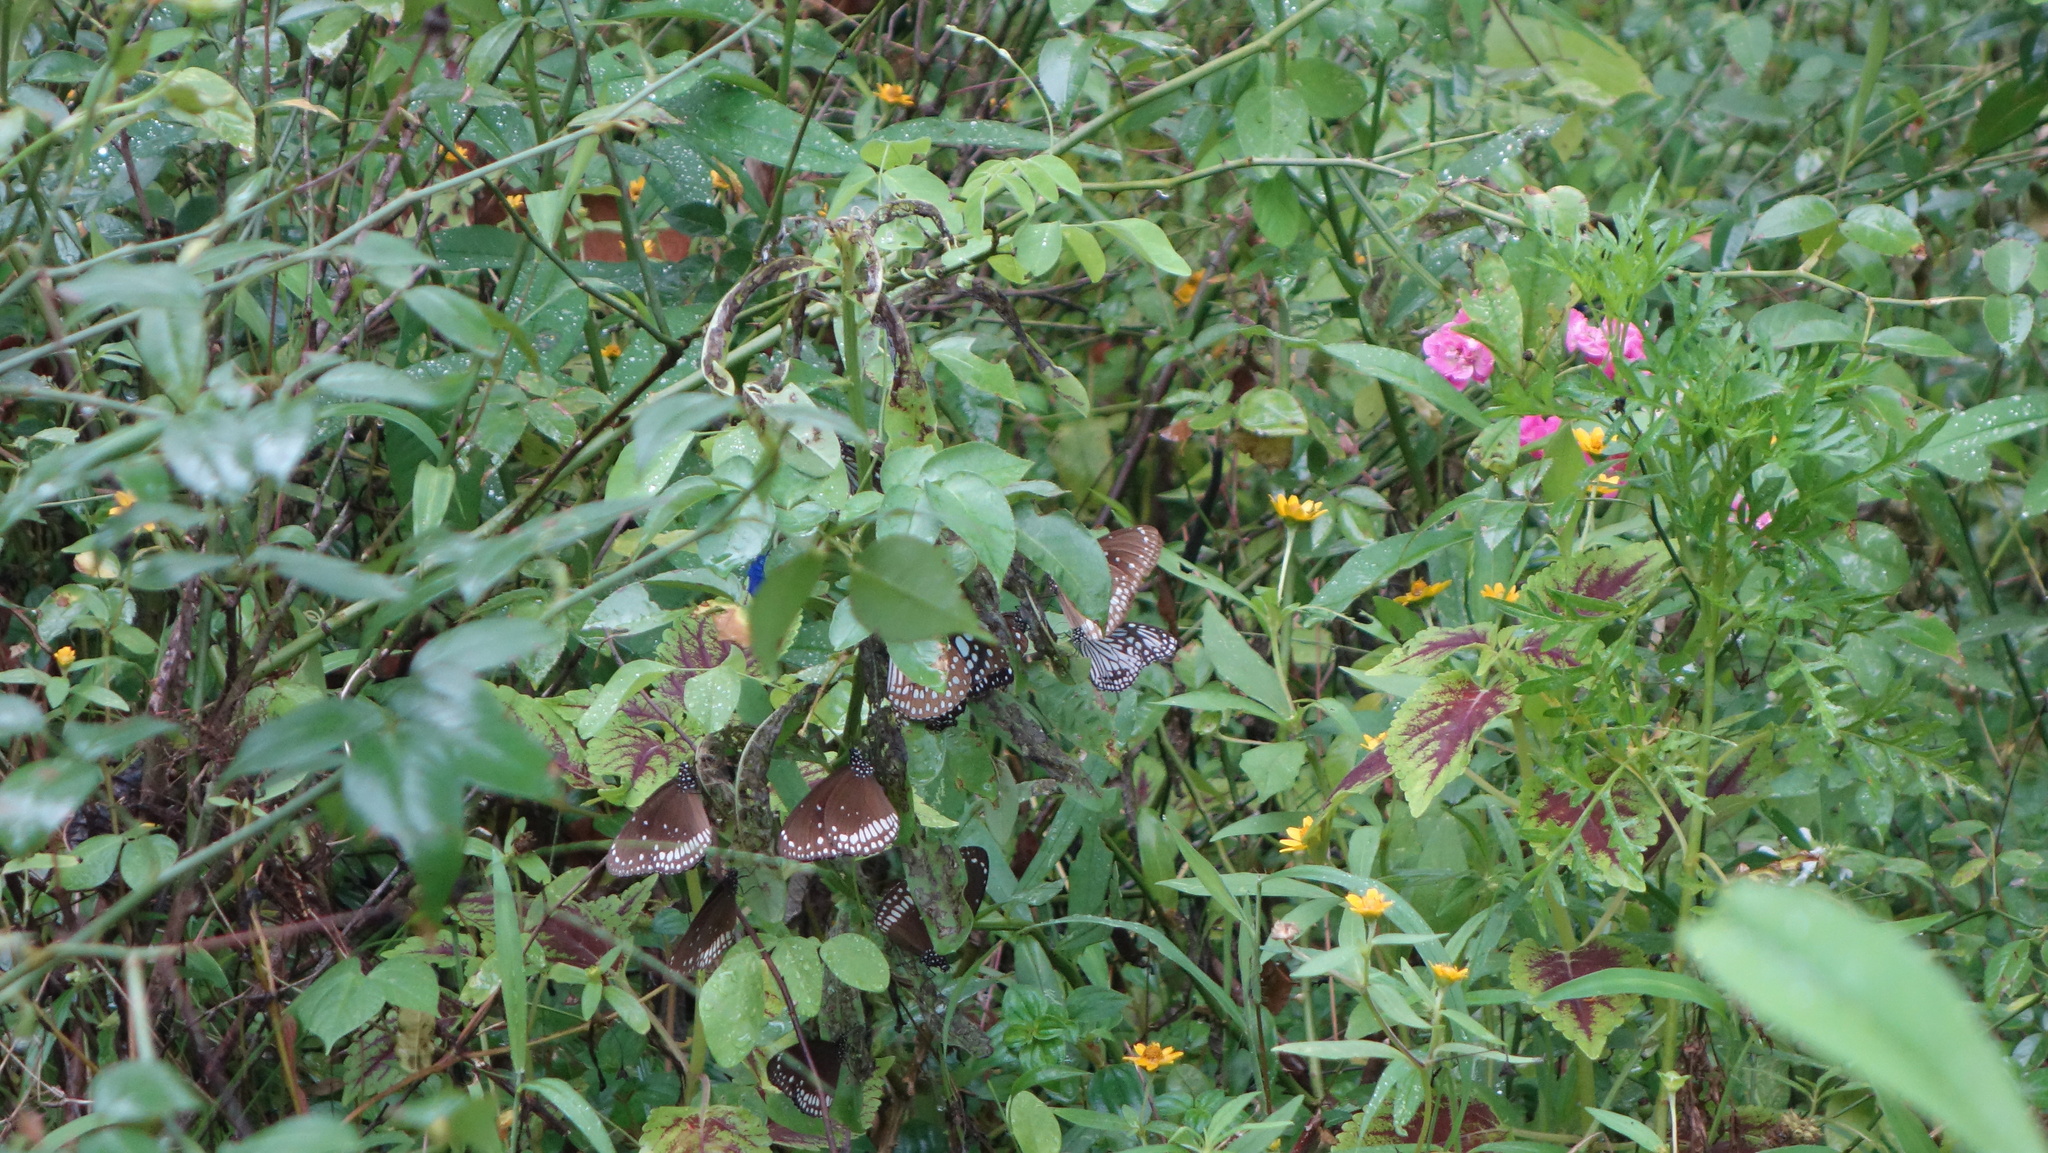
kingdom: Animalia
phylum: Arthropoda
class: Insecta
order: Lepidoptera
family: Nymphalidae
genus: Euploea
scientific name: Euploea core
